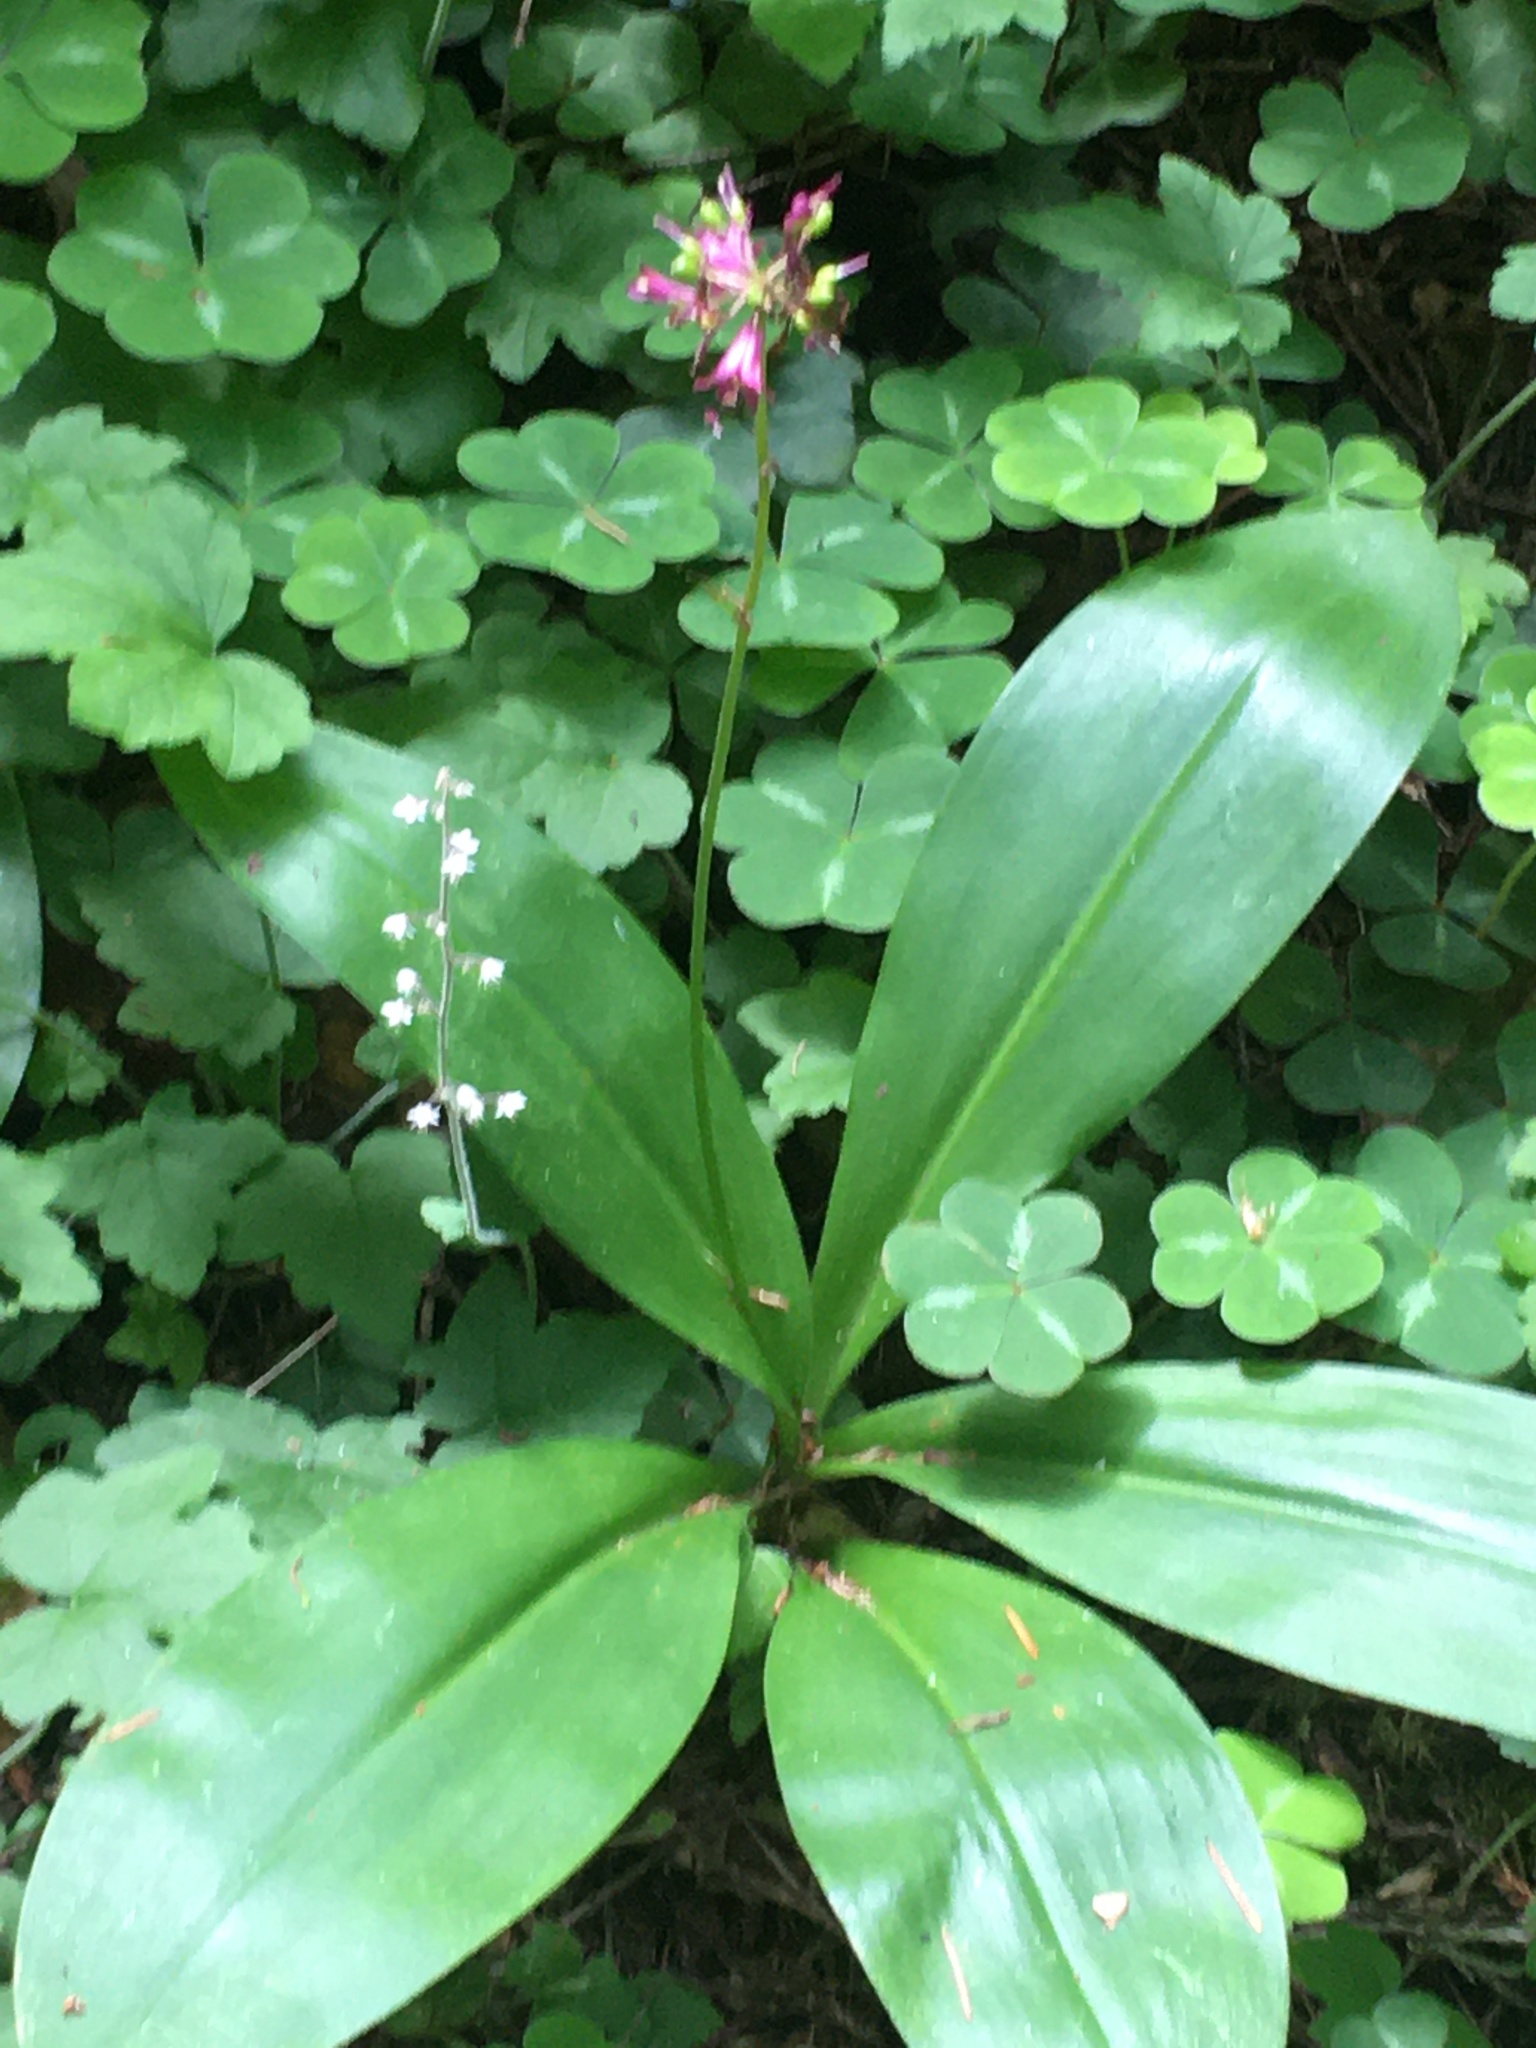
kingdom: Plantae
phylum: Tracheophyta
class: Liliopsida
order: Liliales
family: Liliaceae
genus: Clintonia
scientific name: Clintonia andrewsiana
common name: Red clintonia
